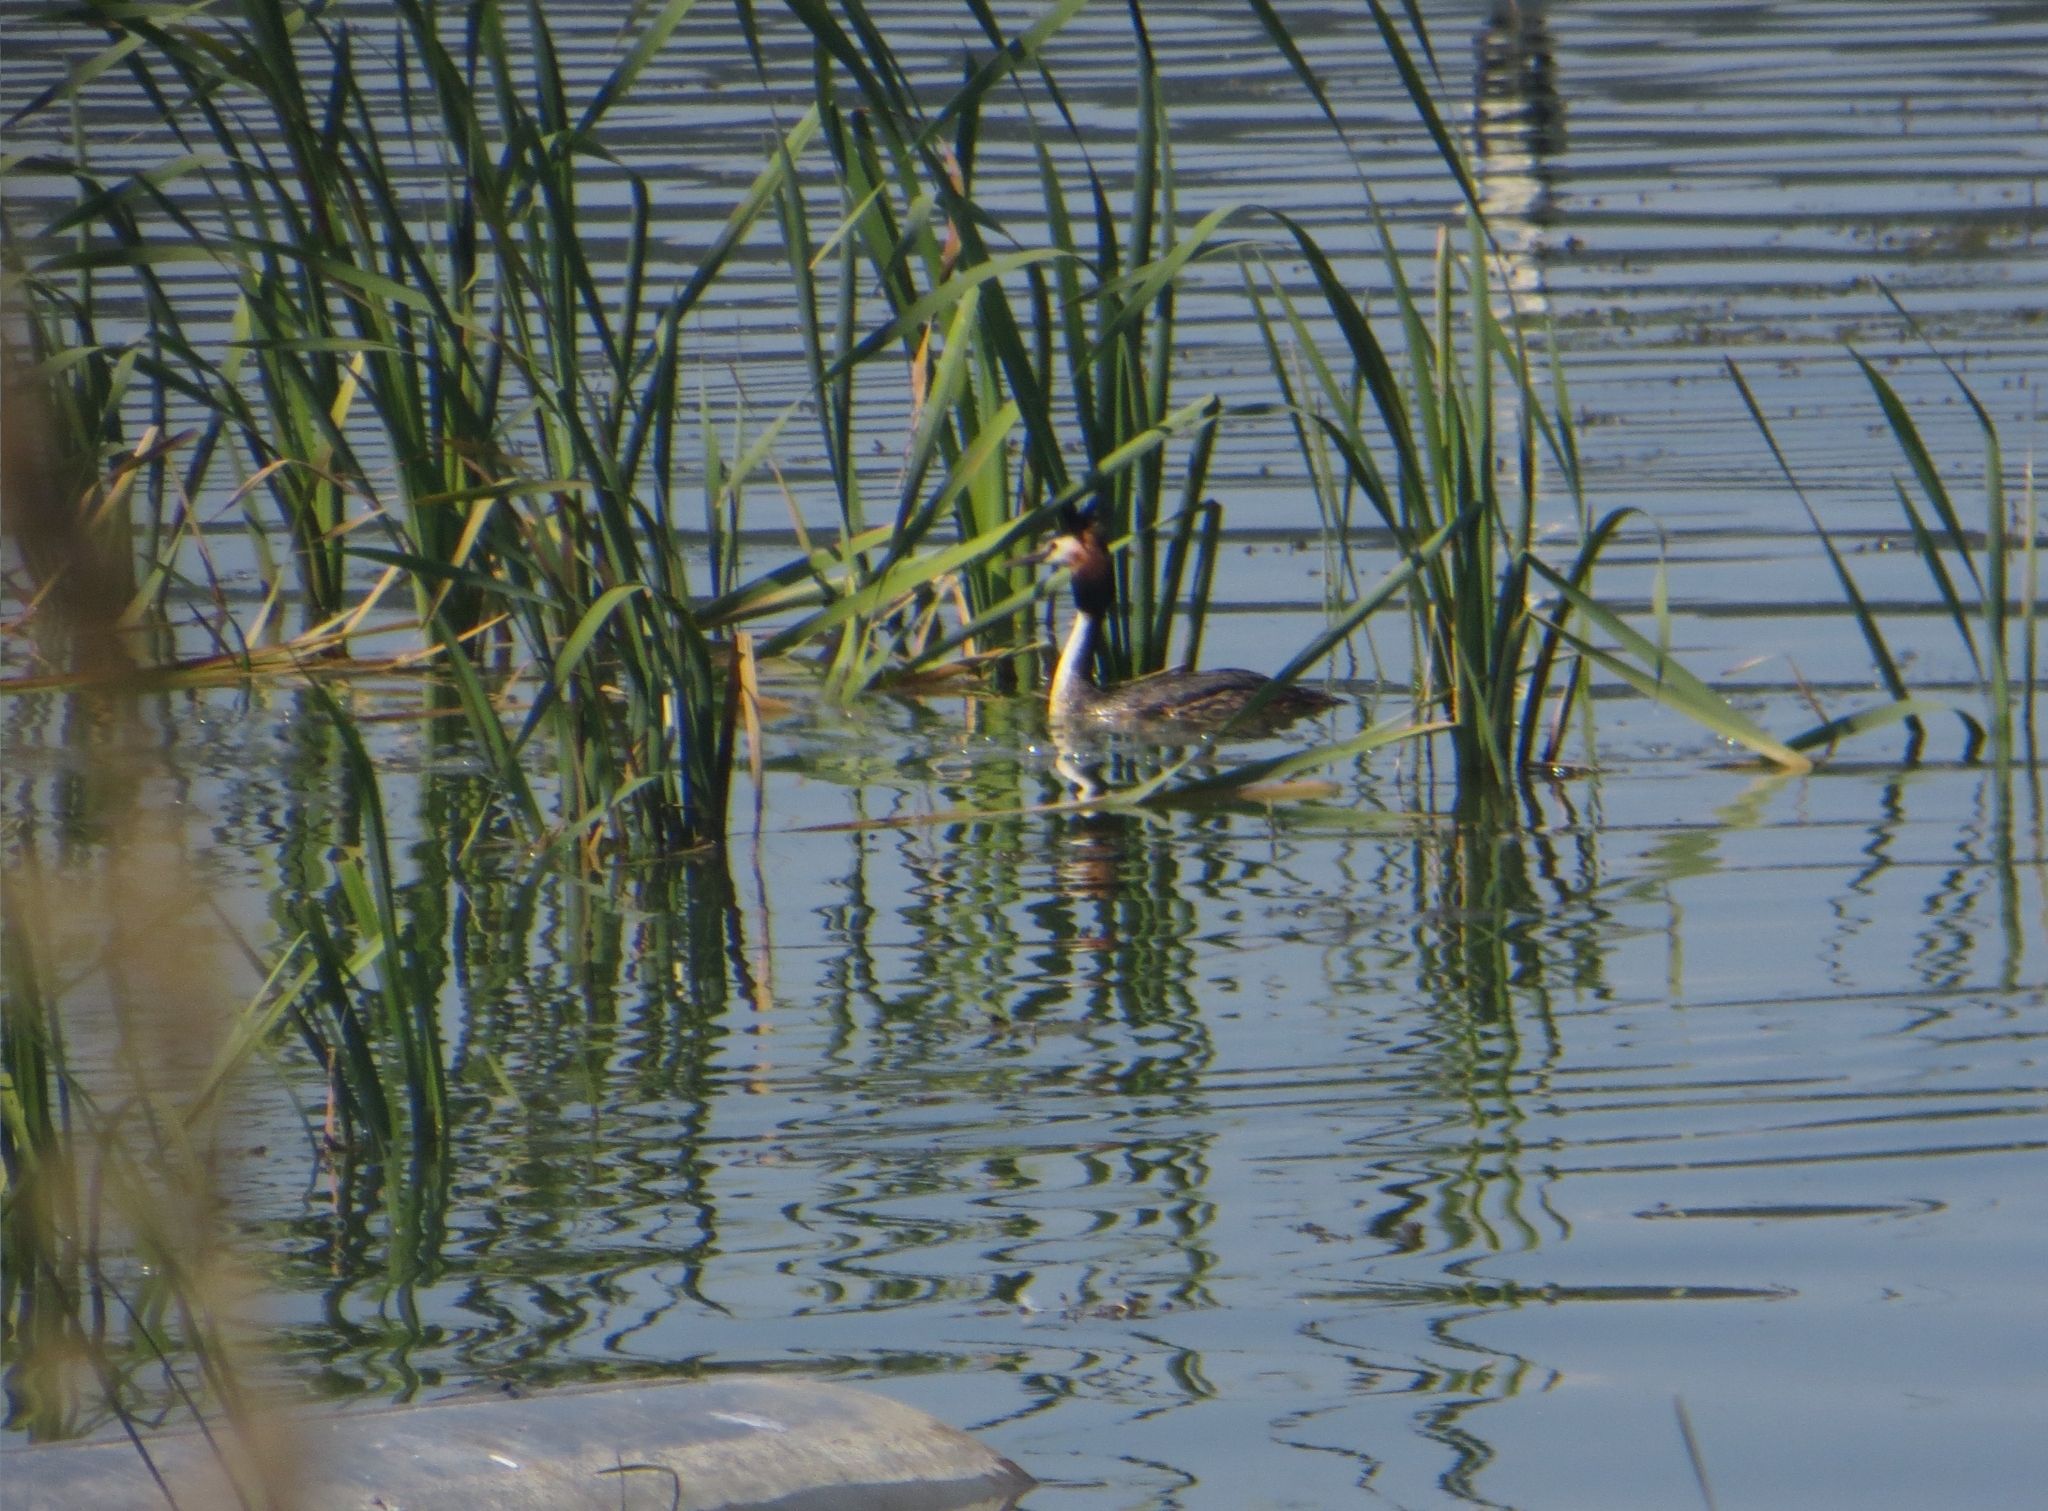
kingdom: Animalia
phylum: Chordata
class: Aves
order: Podicipediformes
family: Podicipedidae
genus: Podiceps
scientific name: Podiceps cristatus
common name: Great crested grebe
